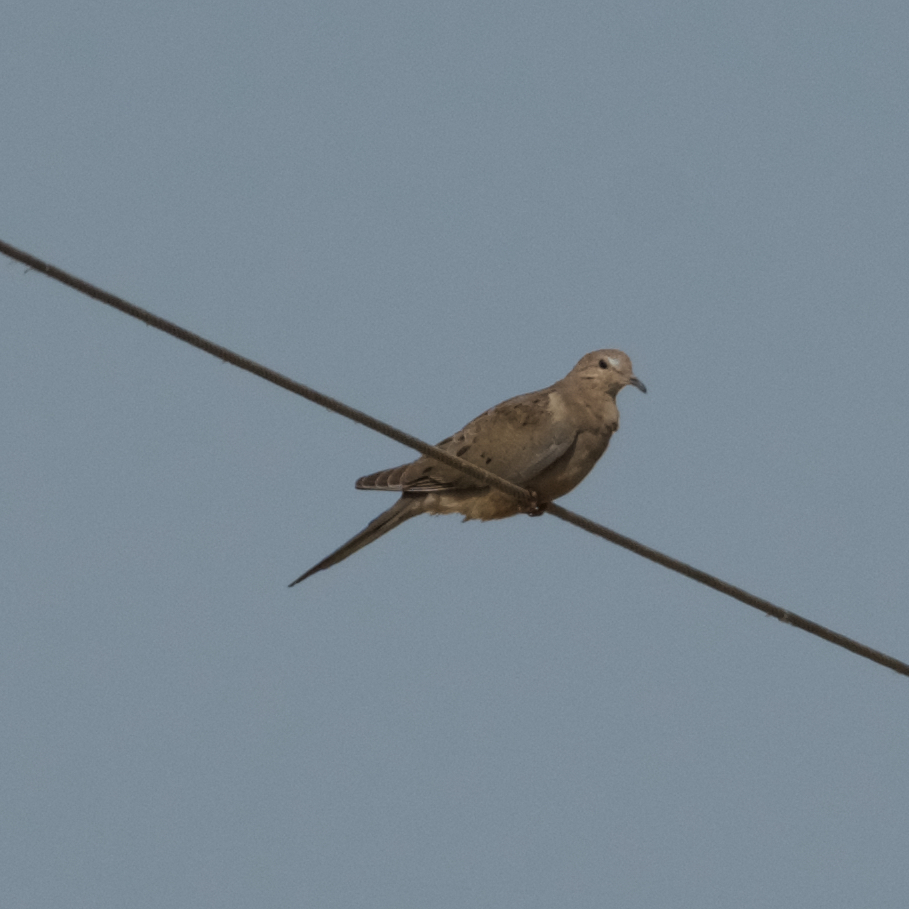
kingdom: Animalia
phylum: Chordata
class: Aves
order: Columbiformes
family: Columbidae
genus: Zenaida
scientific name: Zenaida macroura
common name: Mourning dove
